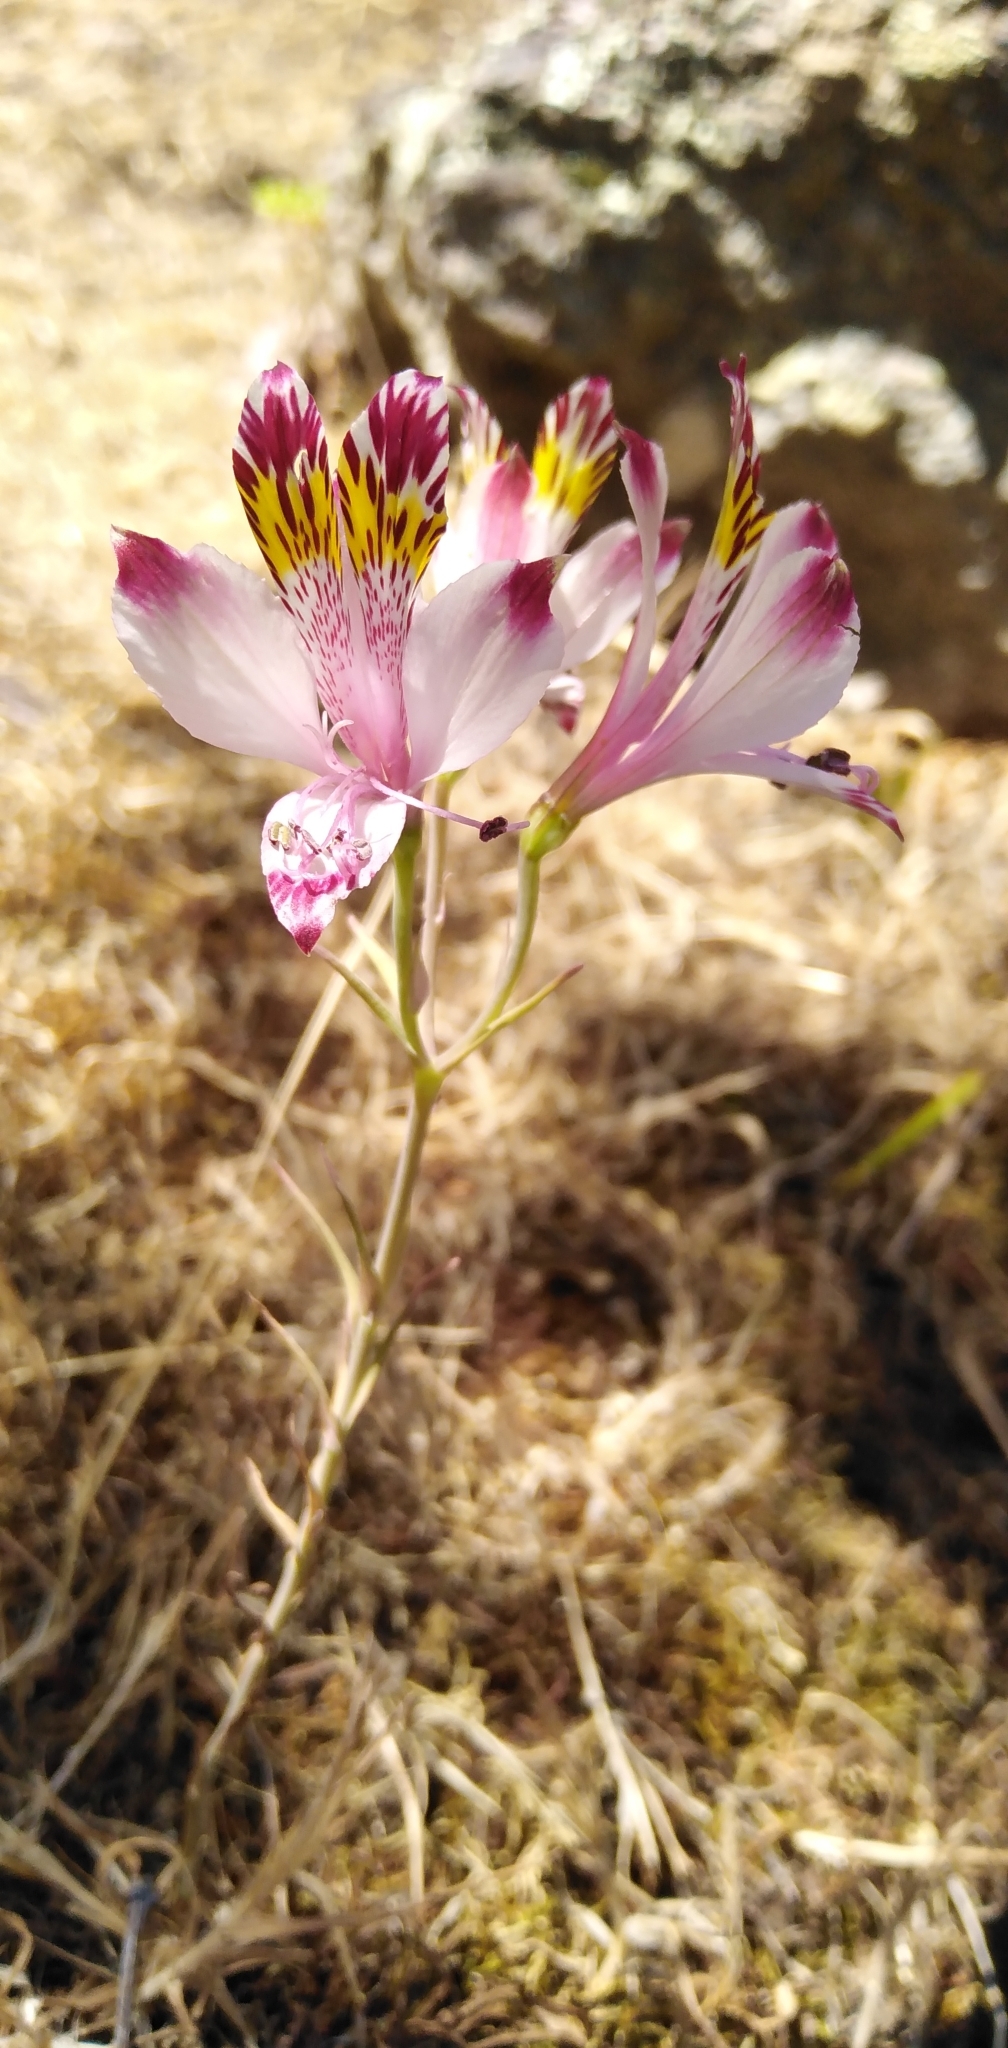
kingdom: Plantae
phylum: Tracheophyta
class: Liliopsida
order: Liliales
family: Alstroemeriaceae
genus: Alstroemeria
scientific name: Alstroemeria pulchra
